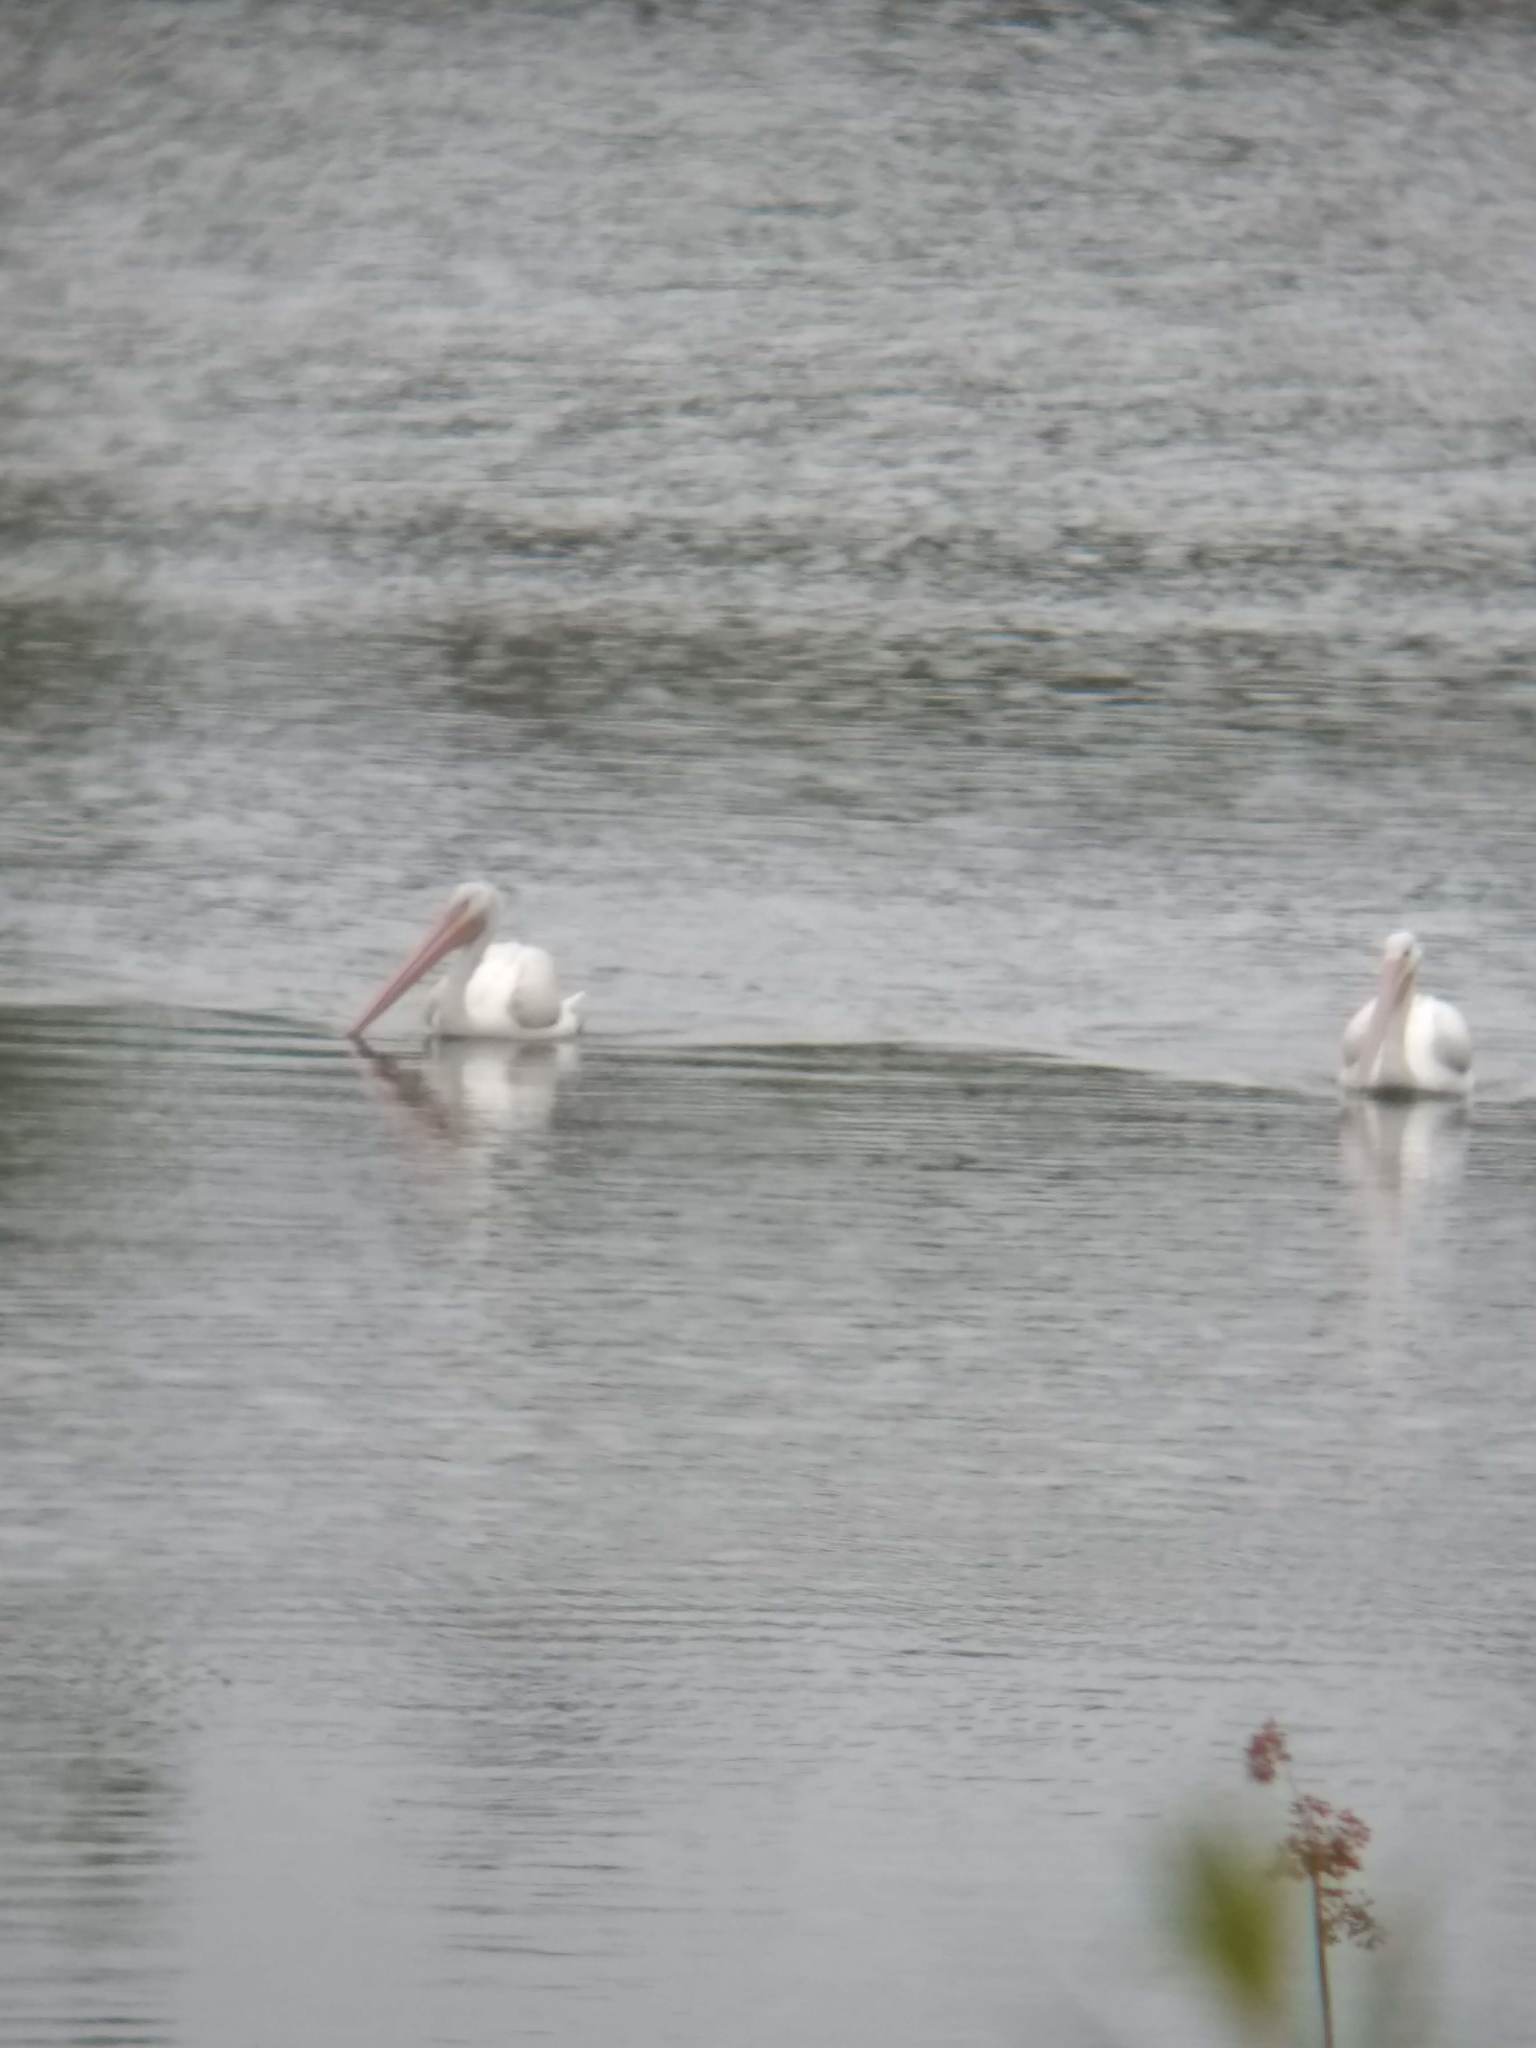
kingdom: Animalia
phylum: Chordata
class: Aves
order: Pelecaniformes
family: Pelecanidae
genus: Pelecanus
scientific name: Pelecanus erythrorhynchos
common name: American white pelican
